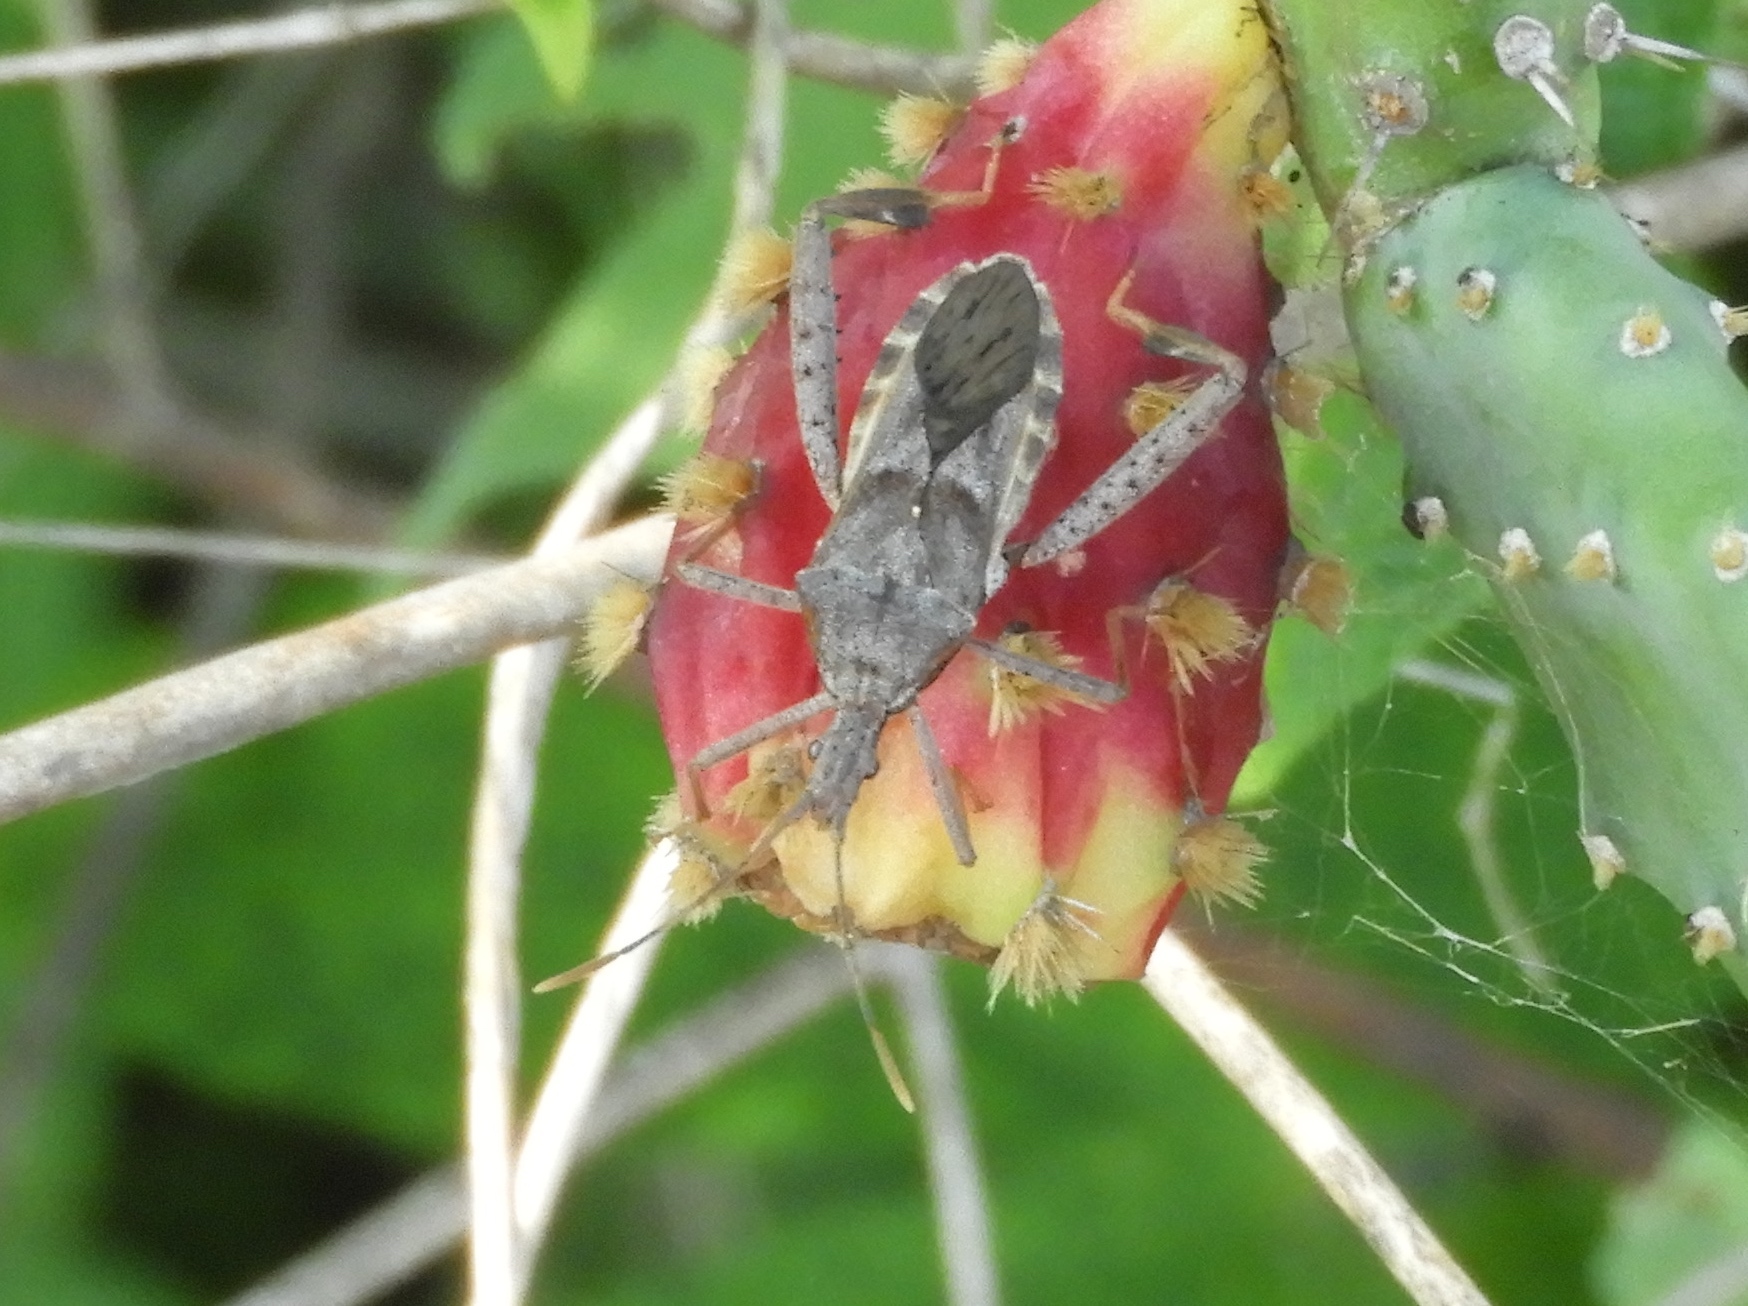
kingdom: Animalia
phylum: Arthropoda
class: Insecta
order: Hemiptera
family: Coreidae
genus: Narnia
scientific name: Narnia
